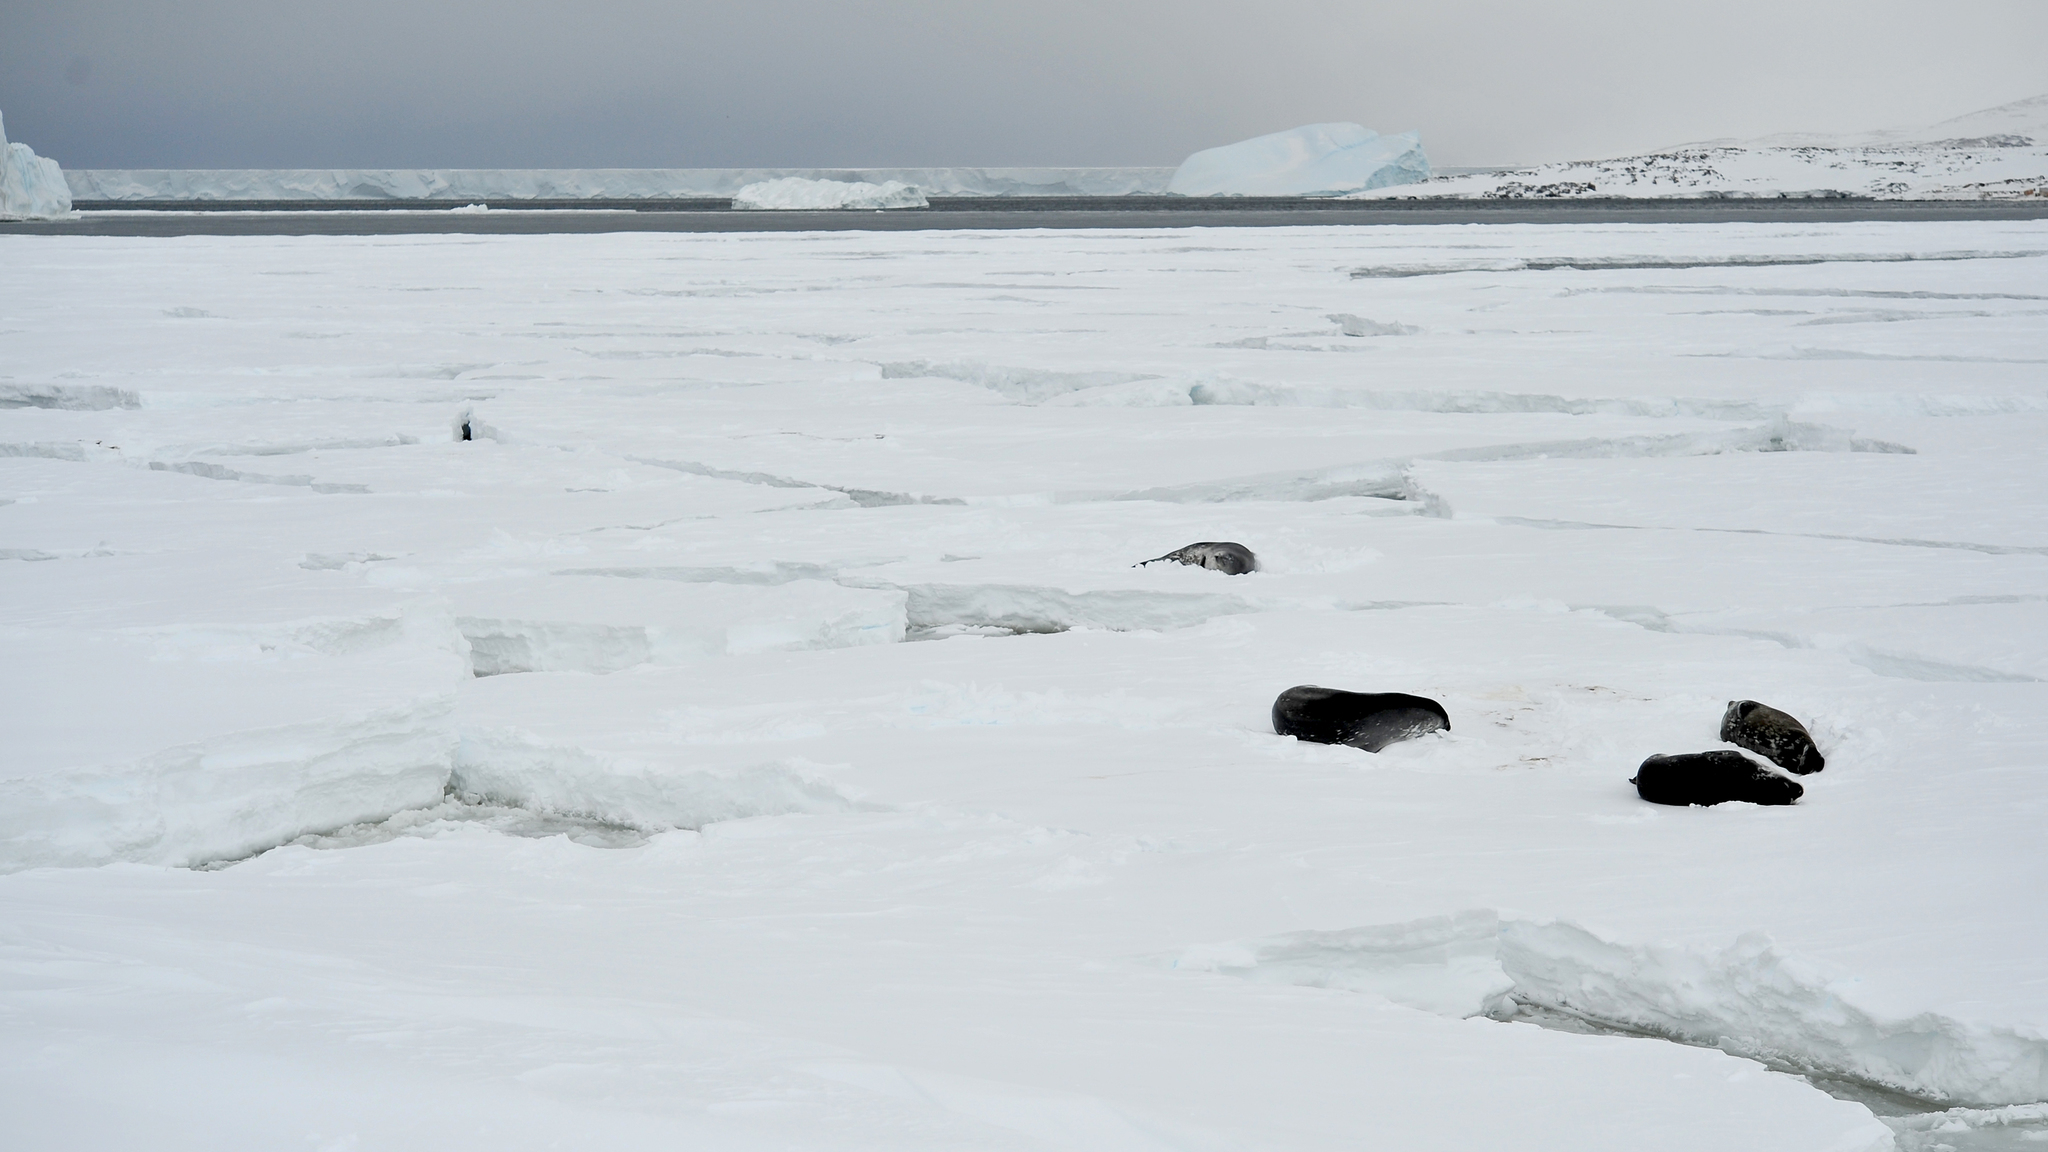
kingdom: Animalia
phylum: Chordata
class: Mammalia
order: Carnivora
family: Phocidae
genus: Leptonychotes
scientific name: Leptonychotes weddellii
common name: Weddell seal
